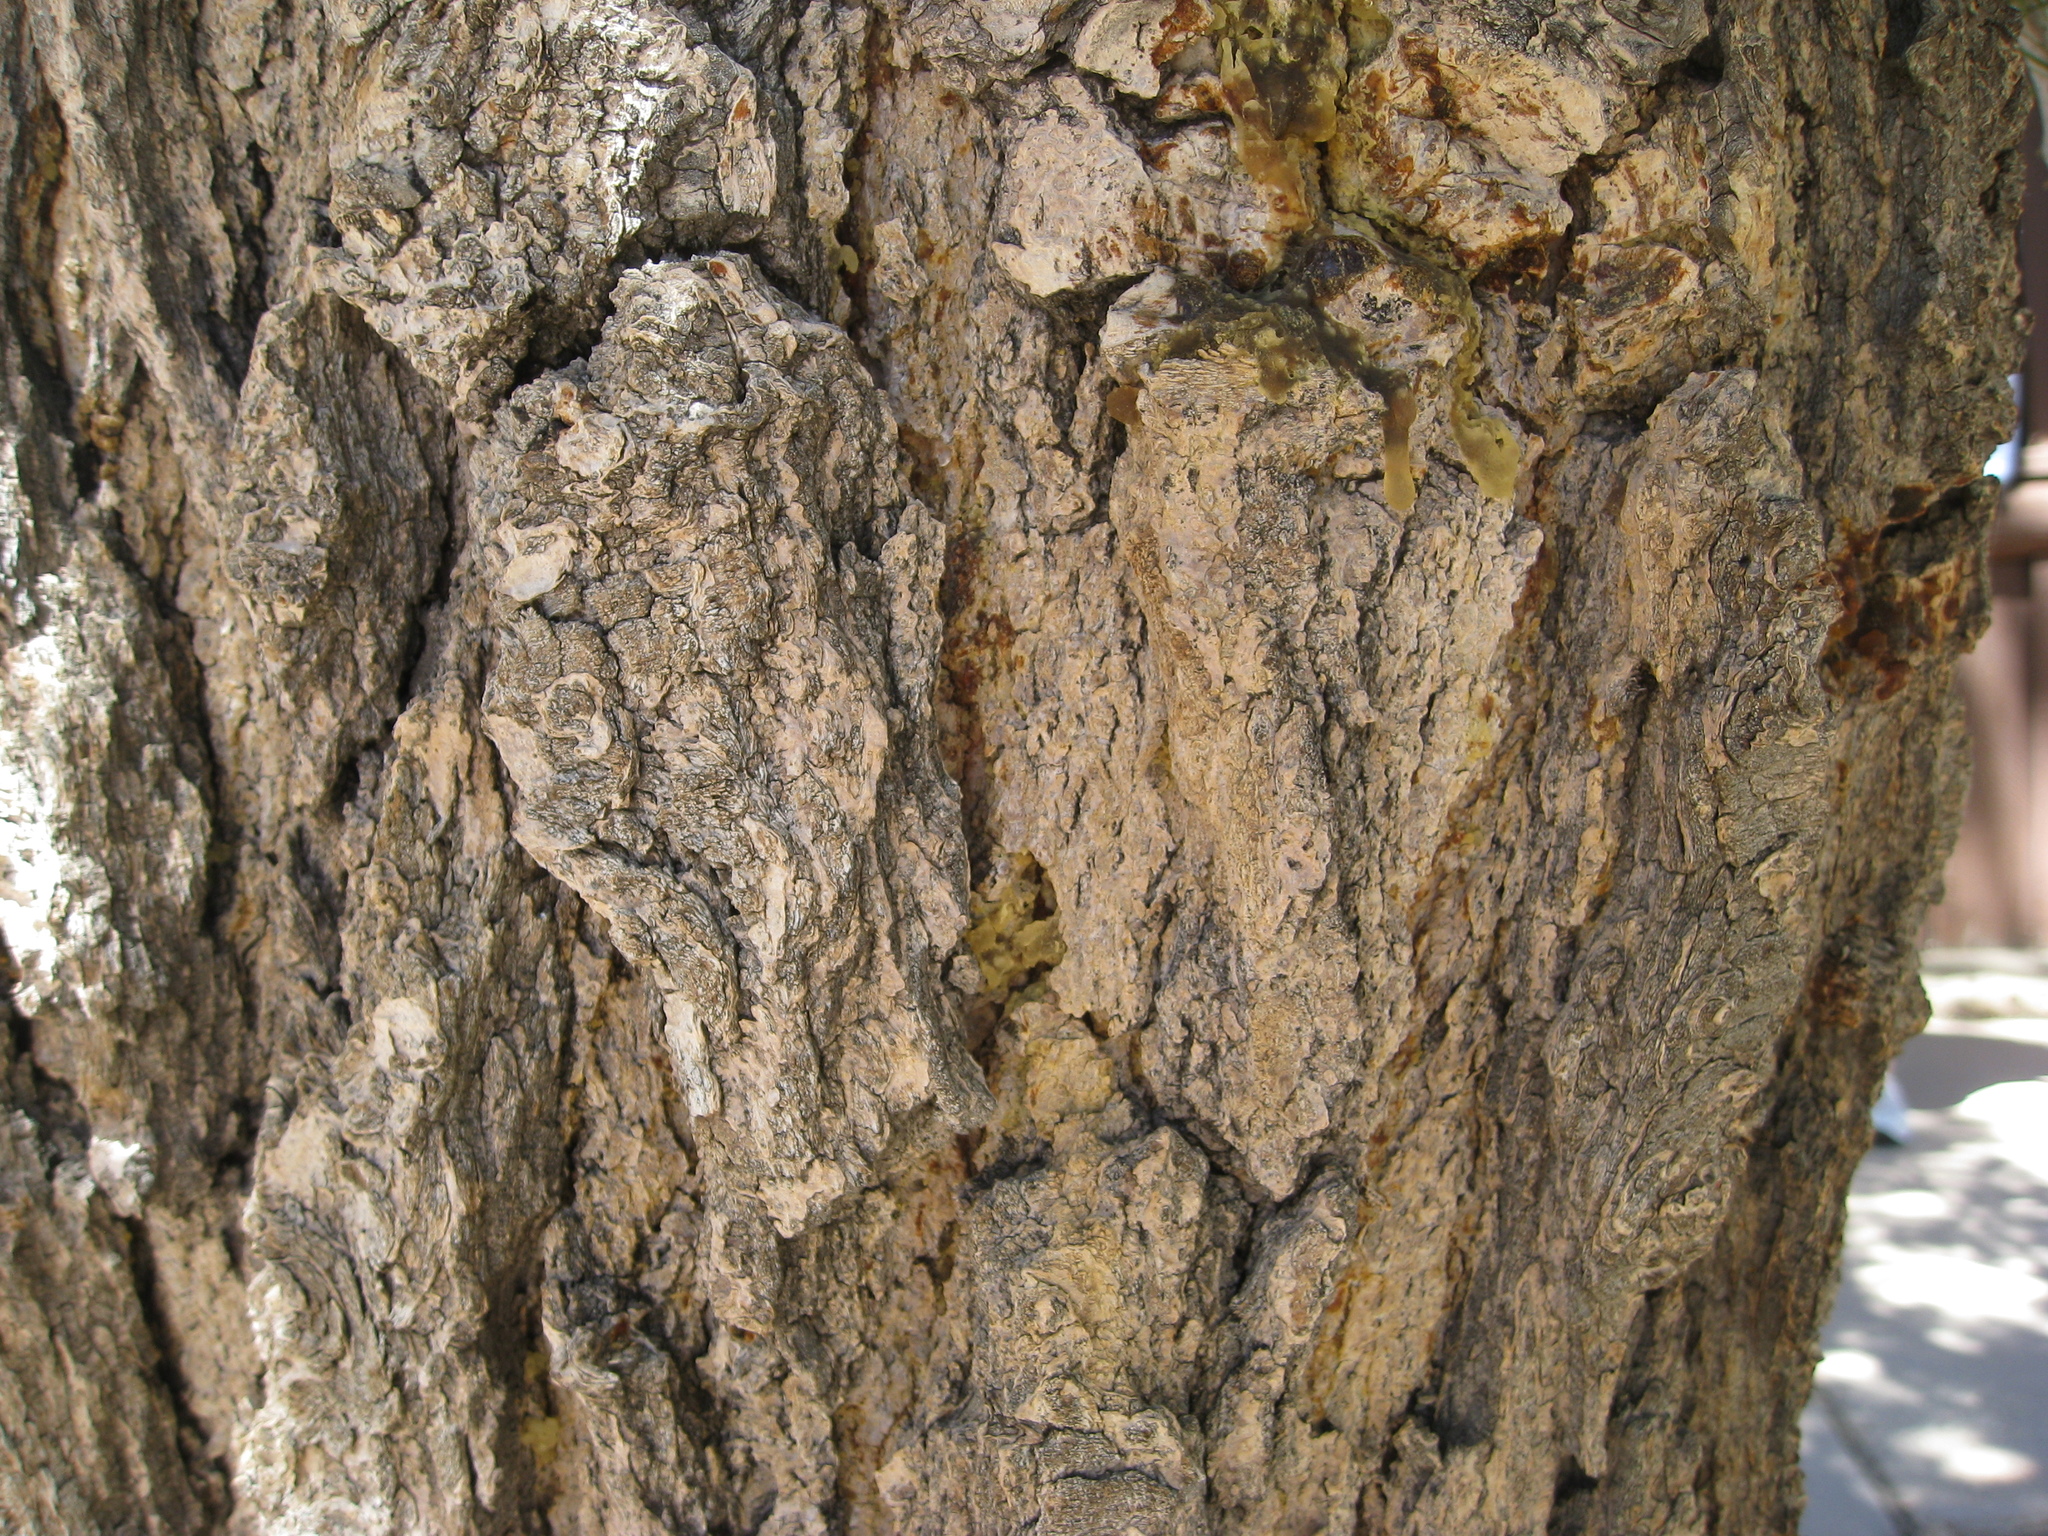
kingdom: Plantae
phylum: Tracheophyta
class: Pinopsida
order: Pinales
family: Pinaceae
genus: Abies
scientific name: Abies concolor
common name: Colorado fir
